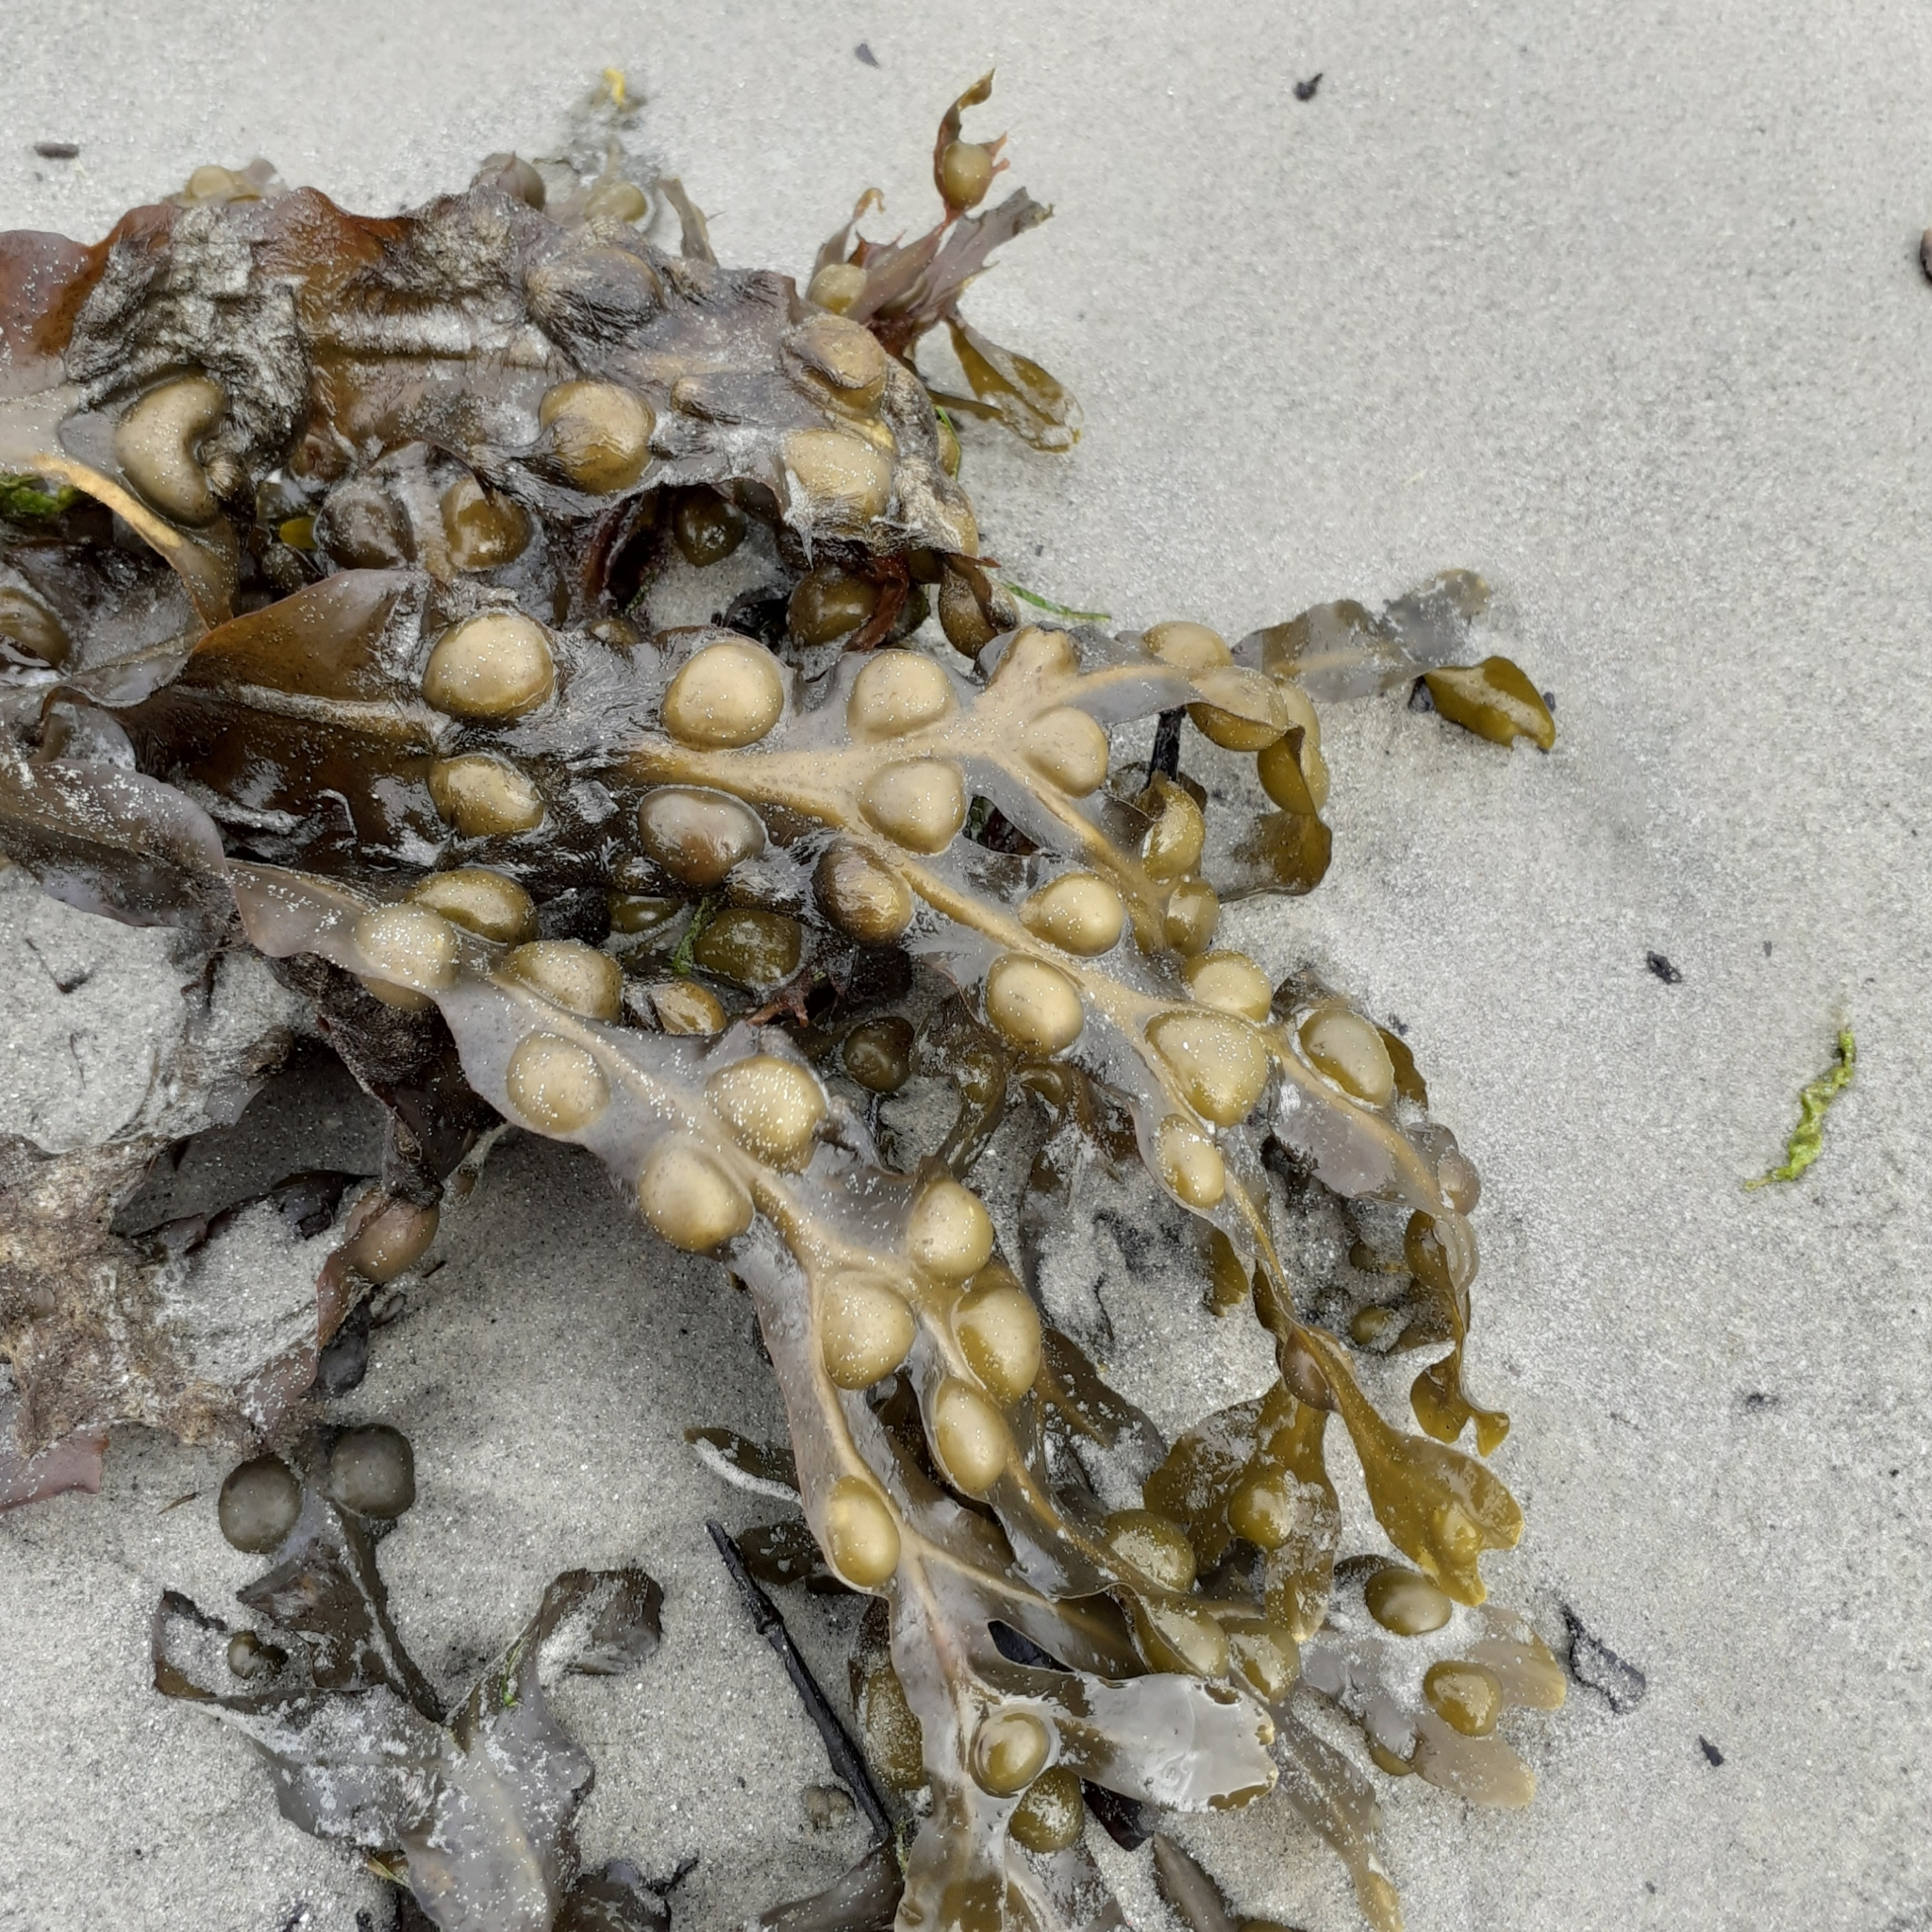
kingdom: Chromista
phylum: Ochrophyta
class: Phaeophyceae
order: Fucales
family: Fucaceae
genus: Fucus
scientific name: Fucus vesiculosus
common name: Bladder wrack
